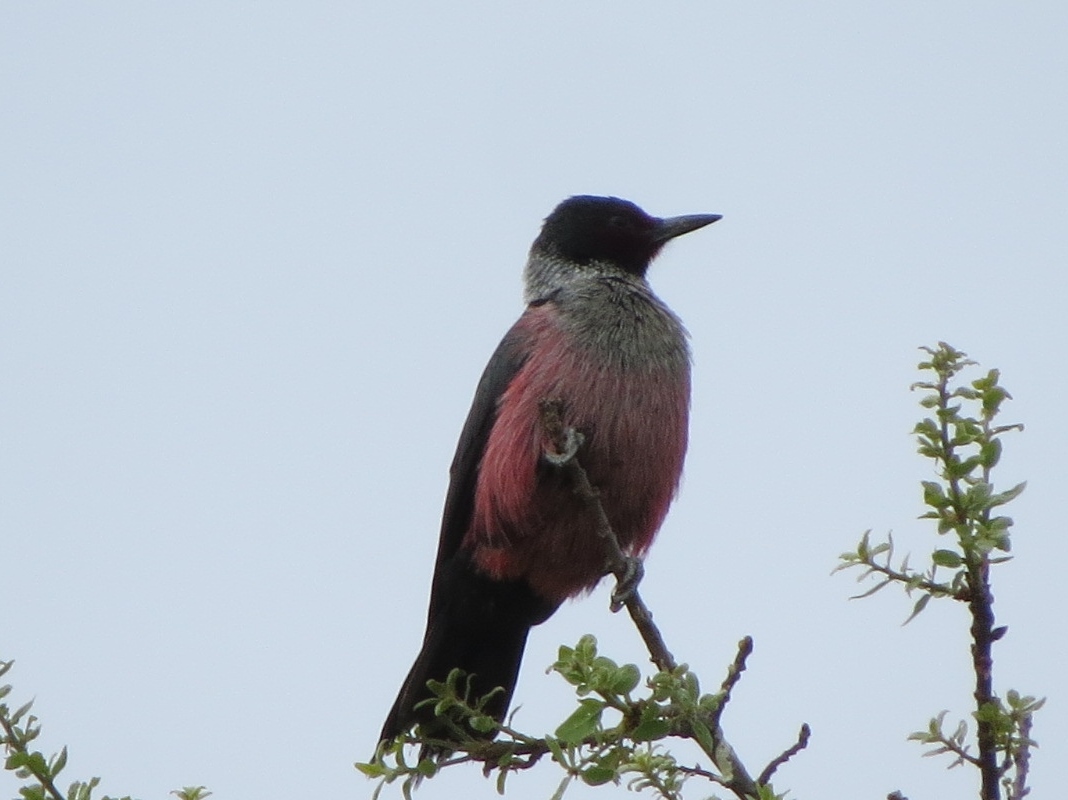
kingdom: Animalia
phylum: Chordata
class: Aves
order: Piciformes
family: Picidae
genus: Melanerpes
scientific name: Melanerpes lewis
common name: Lewis's woodpecker
